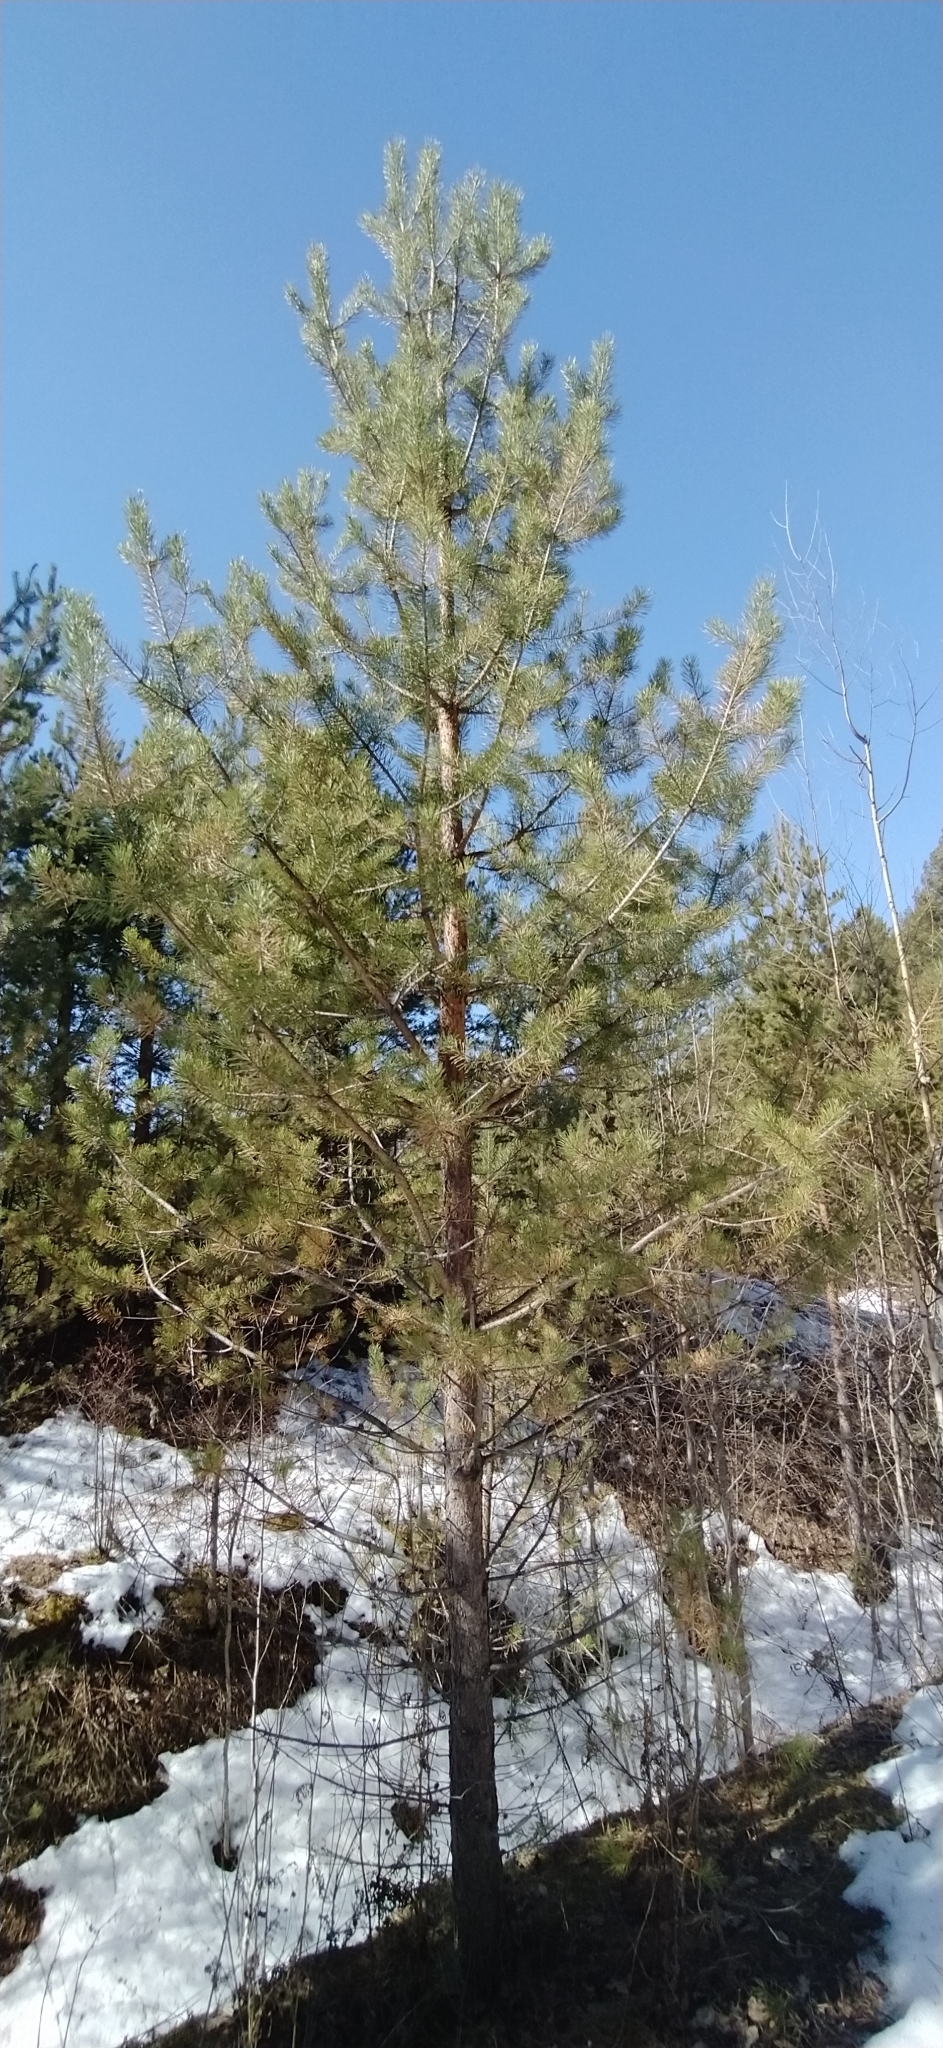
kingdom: Plantae
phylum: Tracheophyta
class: Pinopsida
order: Pinales
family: Pinaceae
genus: Pinus
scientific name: Pinus sylvestris
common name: Scots pine
